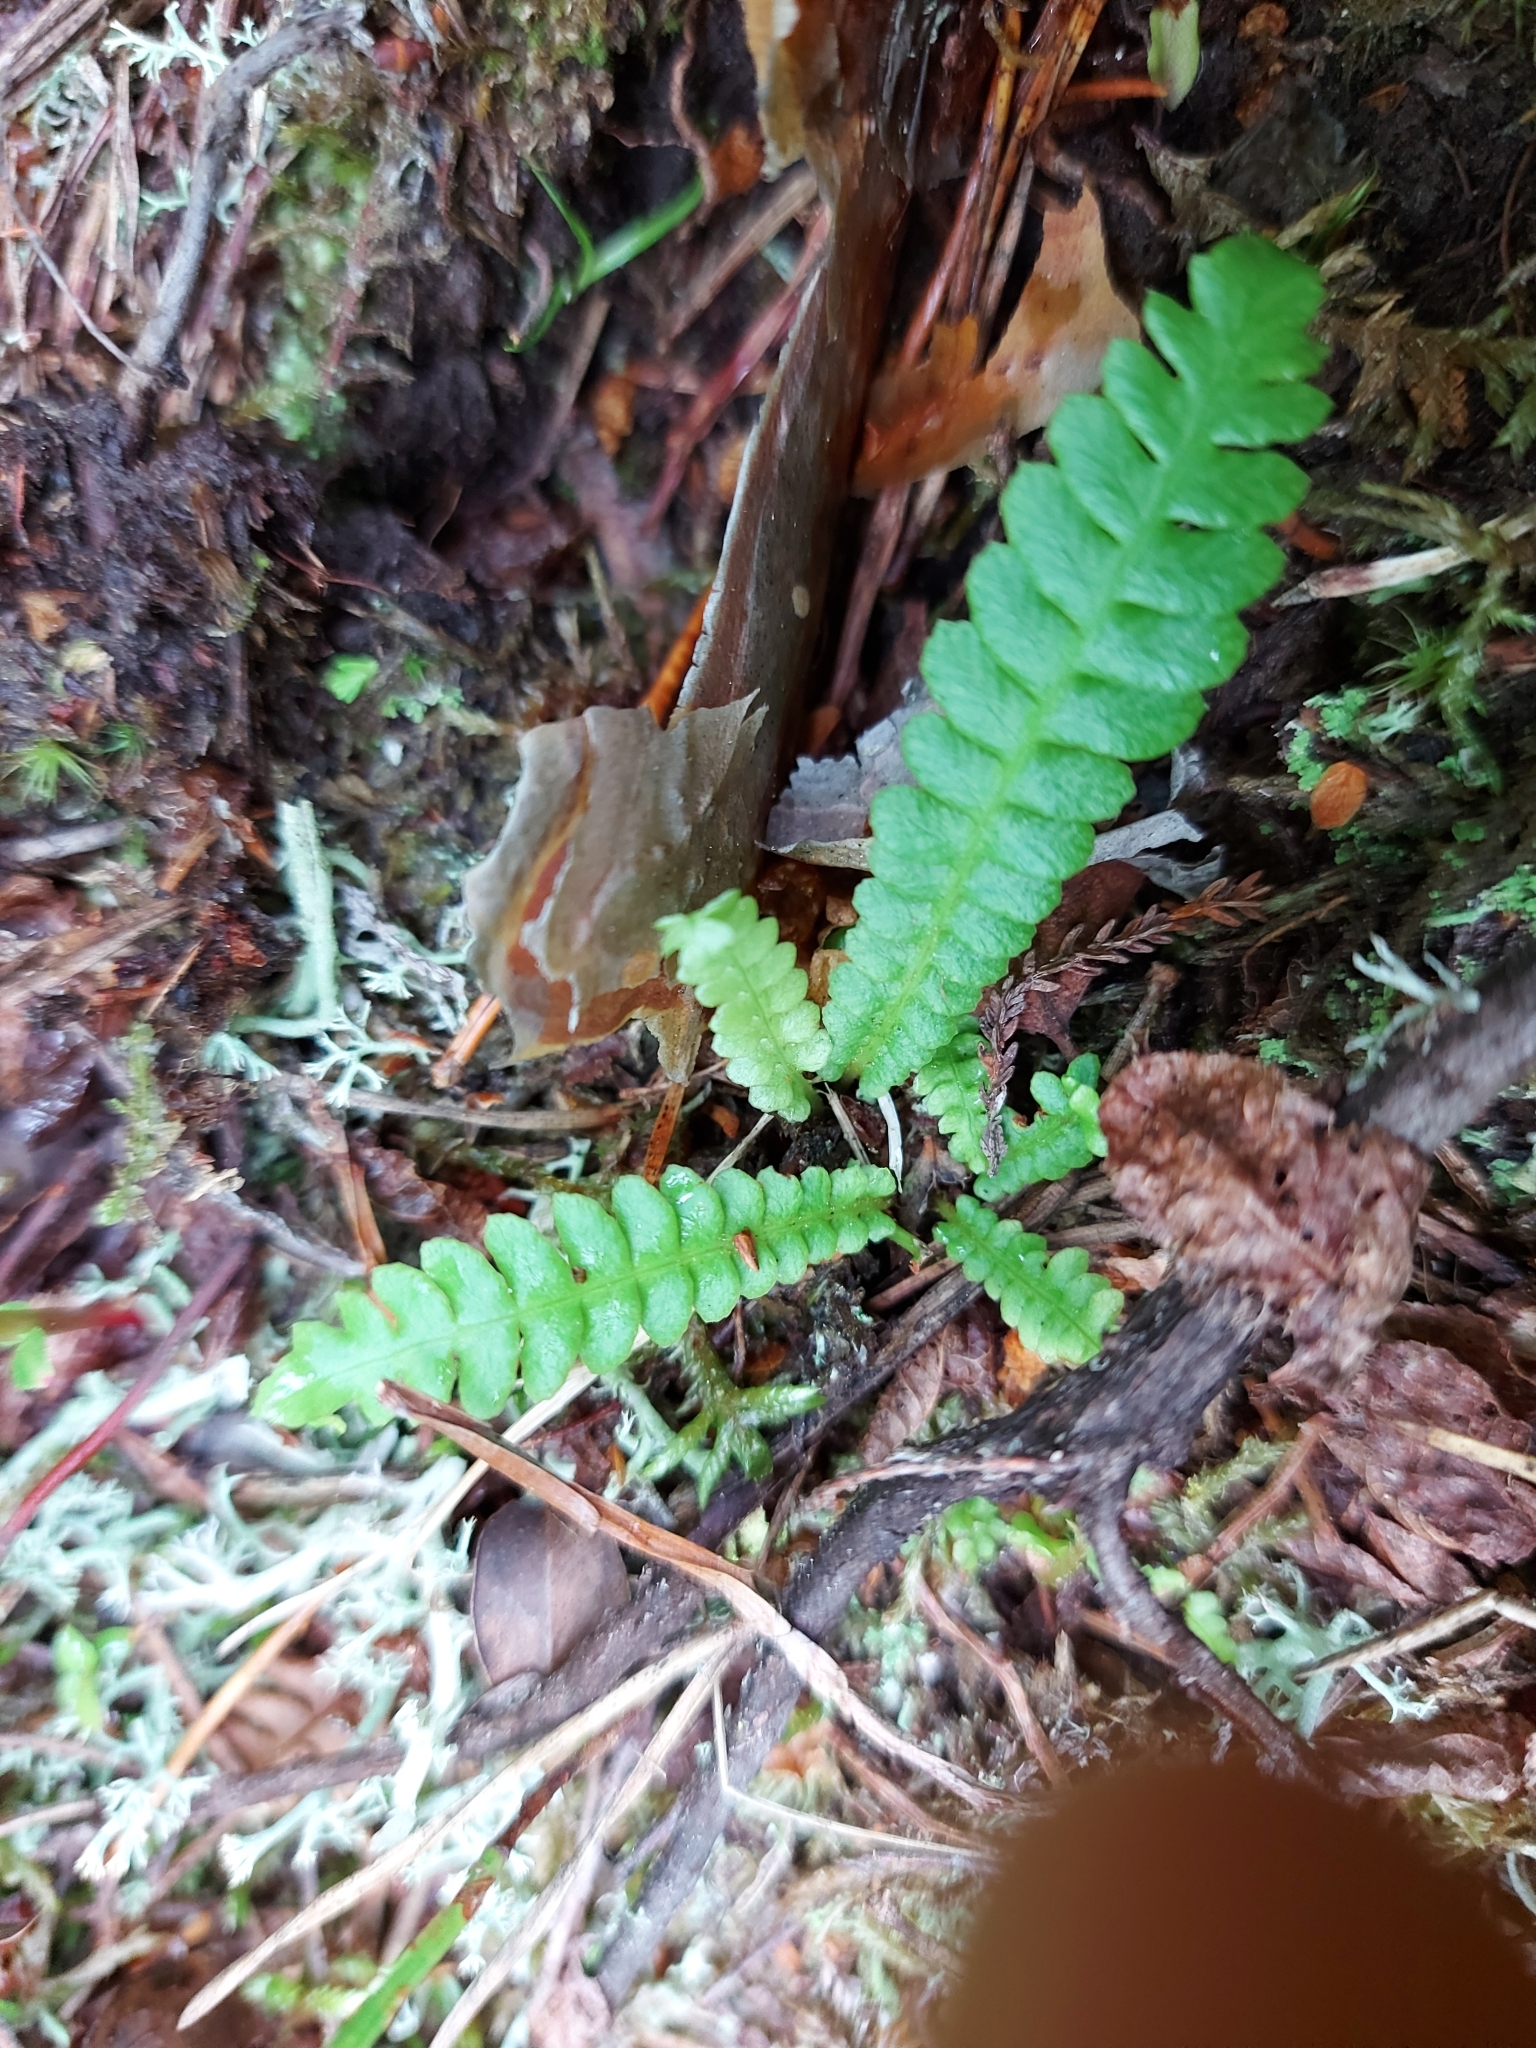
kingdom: Plantae
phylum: Tracheophyta
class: Polypodiopsida
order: Polypodiales
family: Blechnaceae
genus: Struthiopteris
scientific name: Struthiopteris spicant
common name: Deer fern
